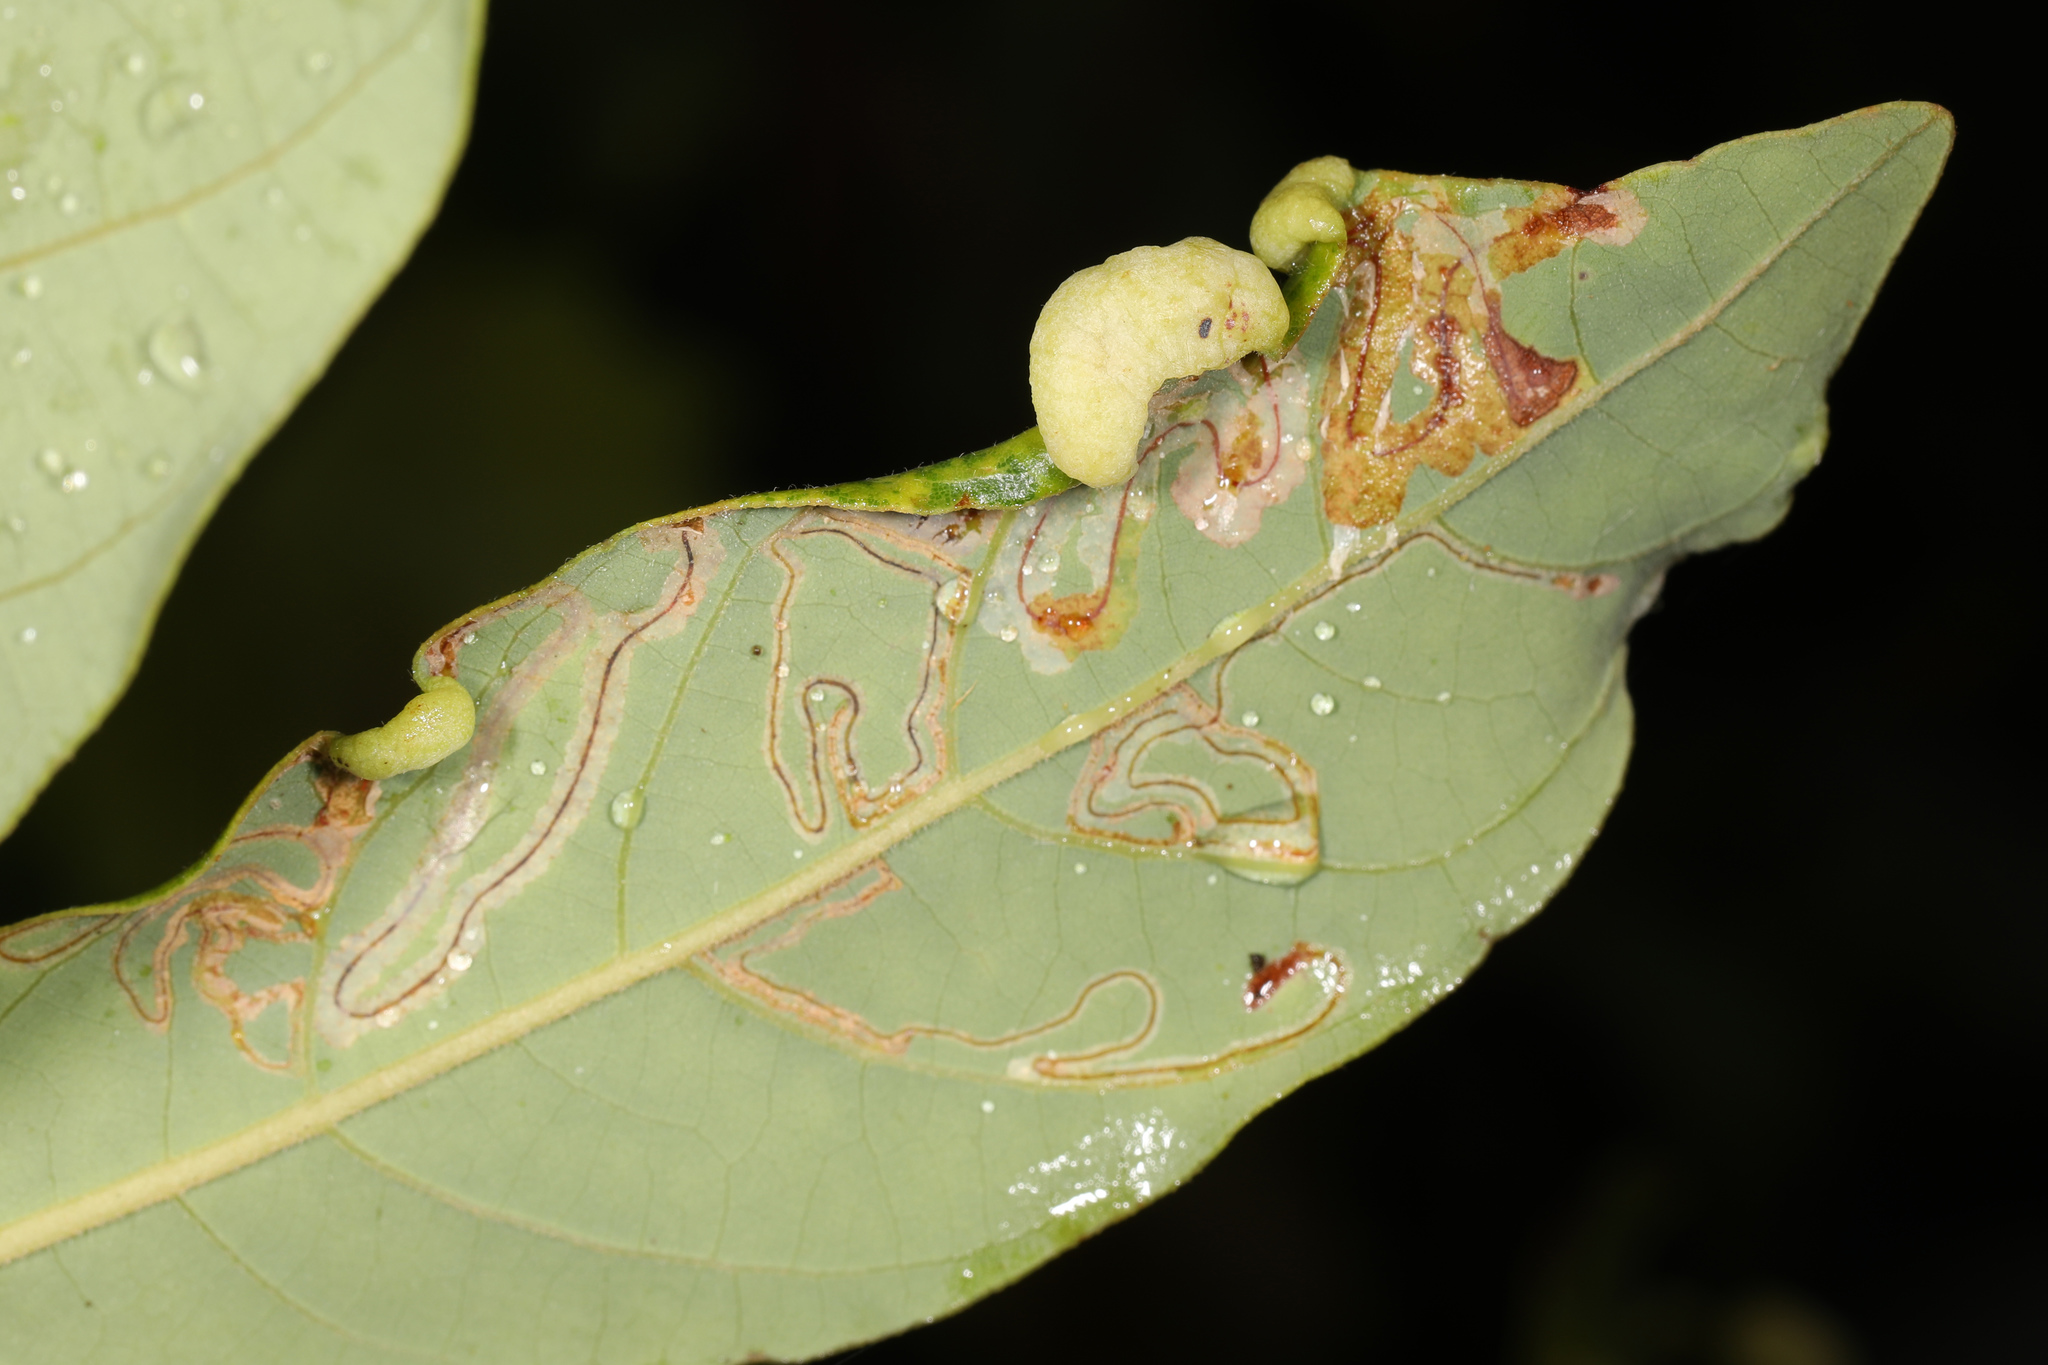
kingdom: Animalia
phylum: Arthropoda
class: Insecta
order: Hemiptera
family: Triozidae
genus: Trioza
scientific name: Trioza magnoliae
